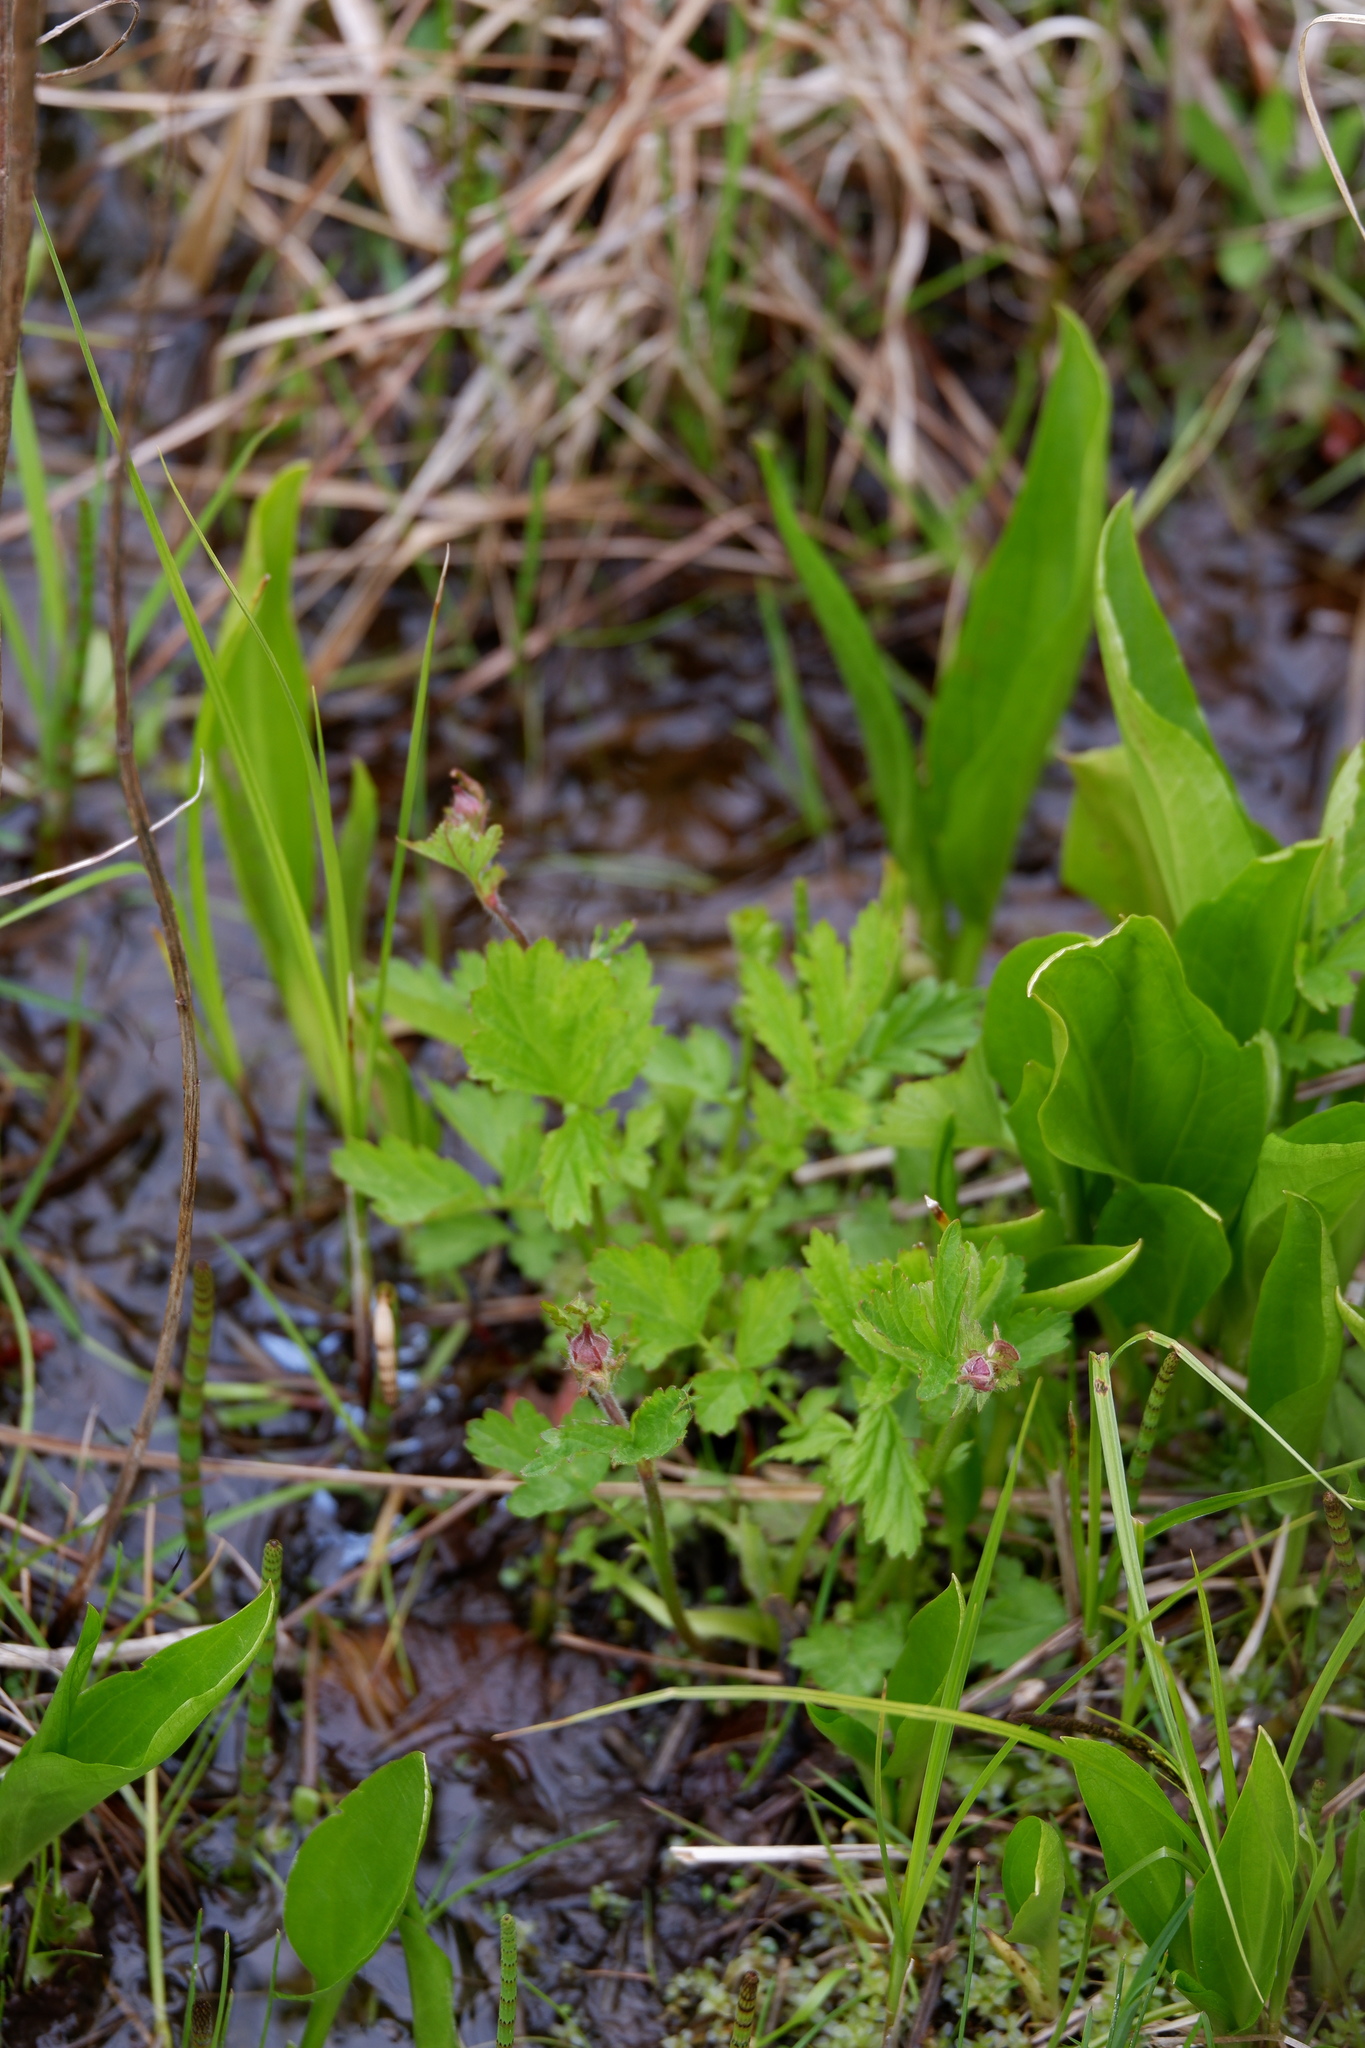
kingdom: Plantae
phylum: Tracheophyta
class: Magnoliopsida
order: Rosales
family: Rosaceae
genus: Geum
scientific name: Geum rivale
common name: Water avens
